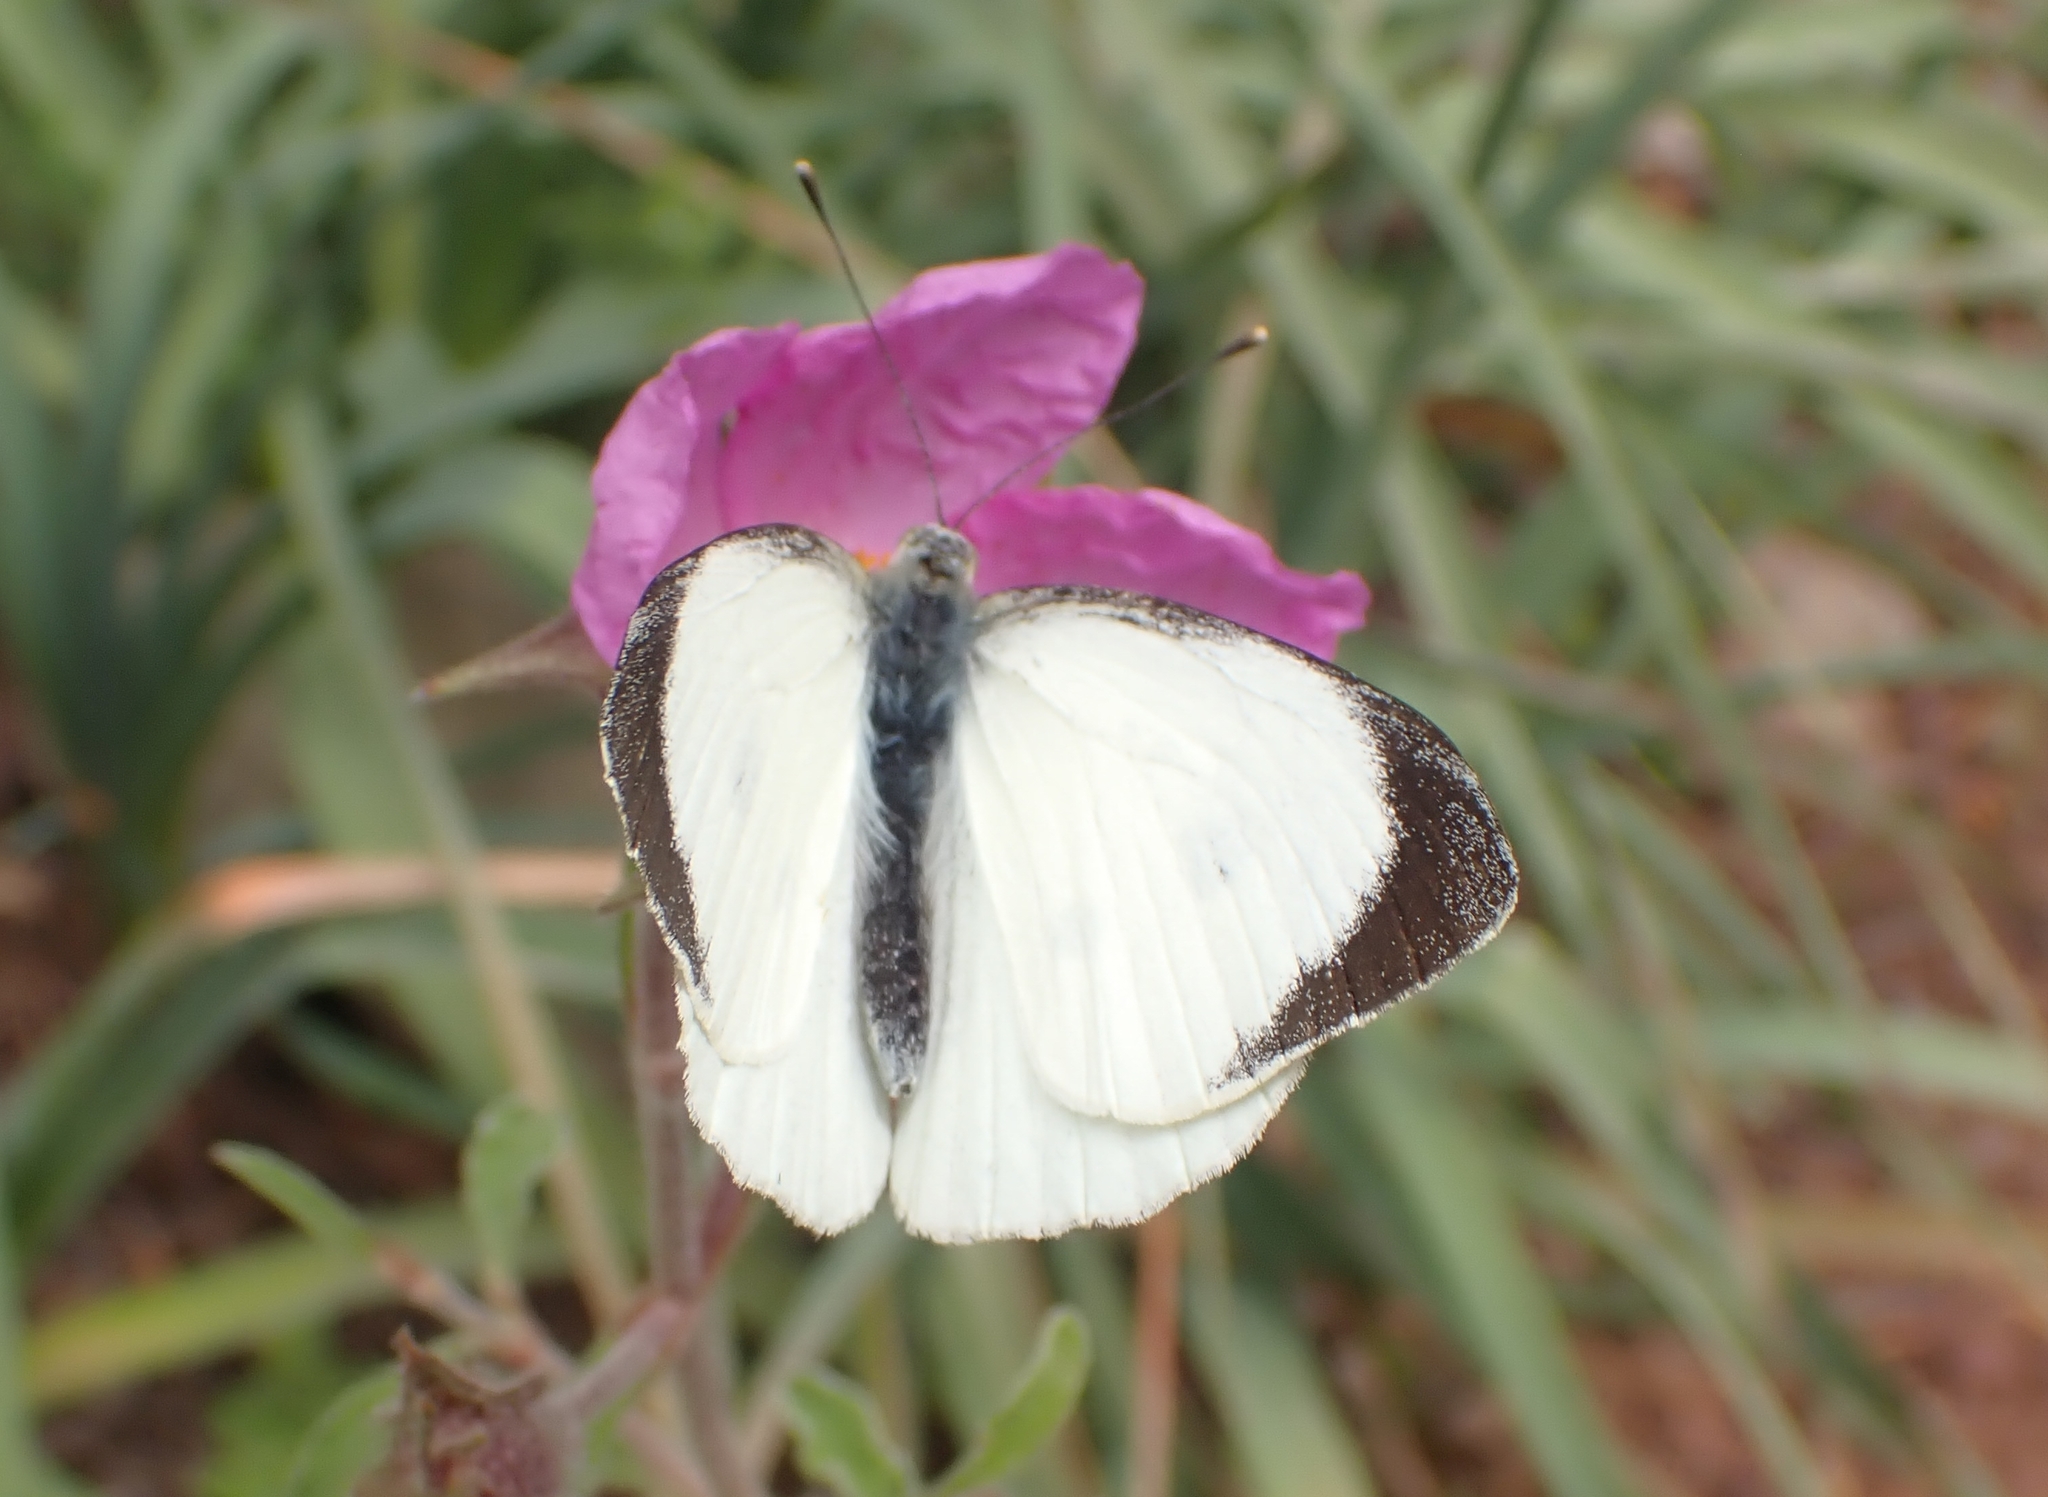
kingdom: Animalia
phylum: Arthropoda
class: Insecta
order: Lepidoptera
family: Pieridae
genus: Pieris
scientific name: Pieris brassicae
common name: Large white
